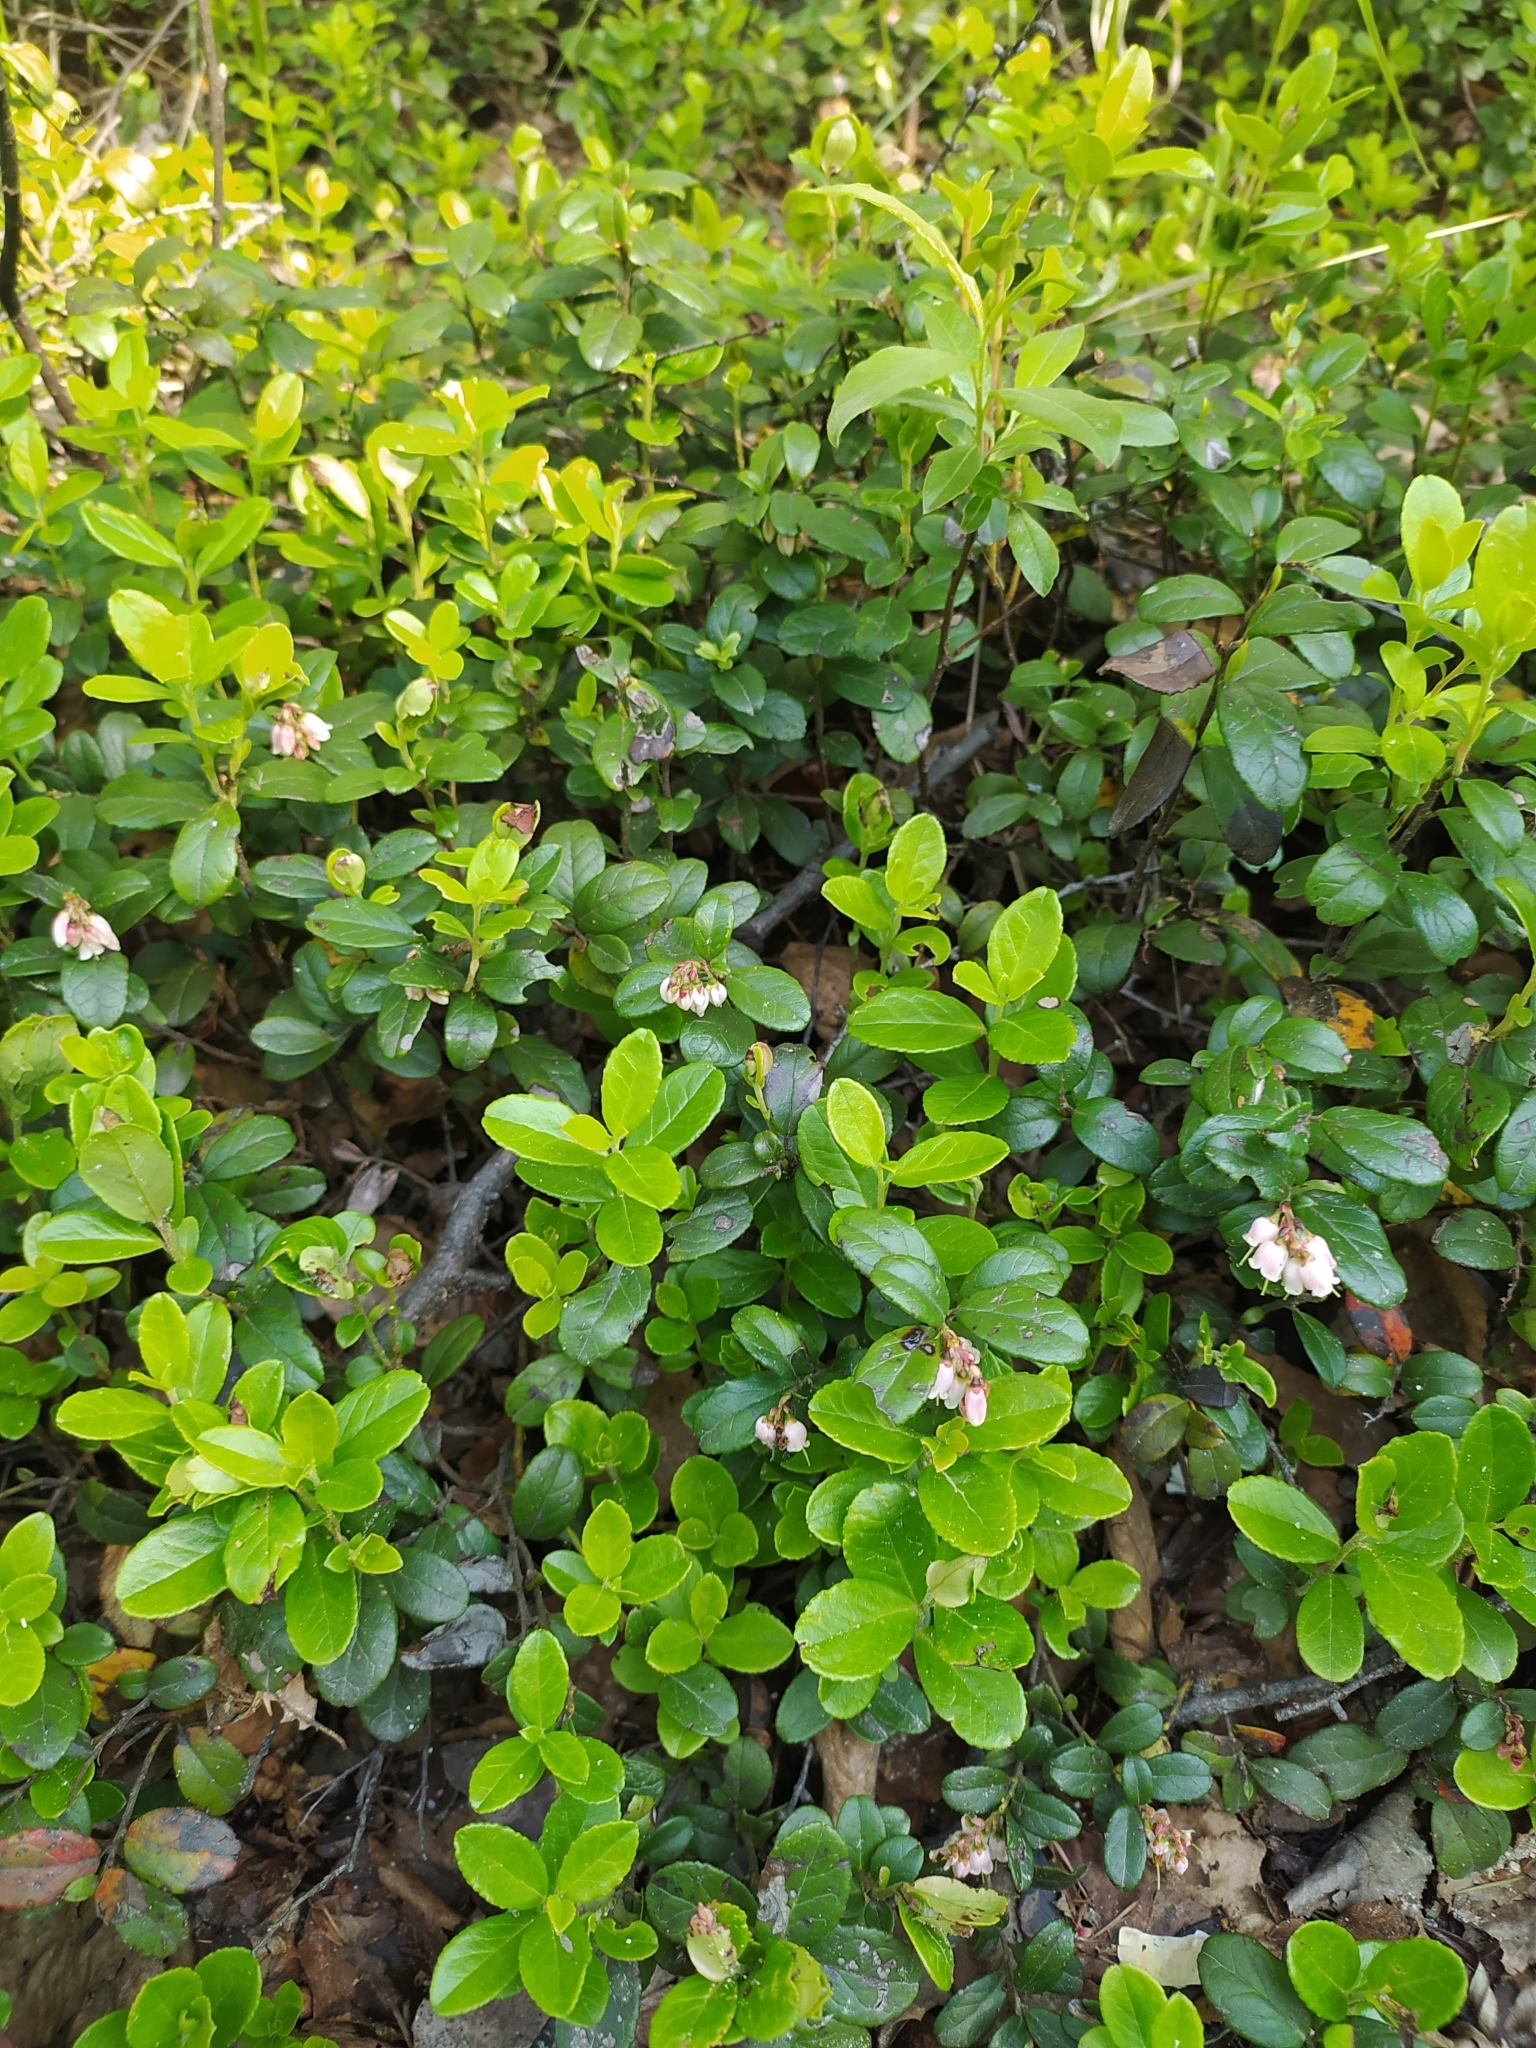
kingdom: Plantae
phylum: Tracheophyta
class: Magnoliopsida
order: Ericales
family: Ericaceae
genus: Vaccinium
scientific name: Vaccinium vitis-idaea
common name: Cowberry
